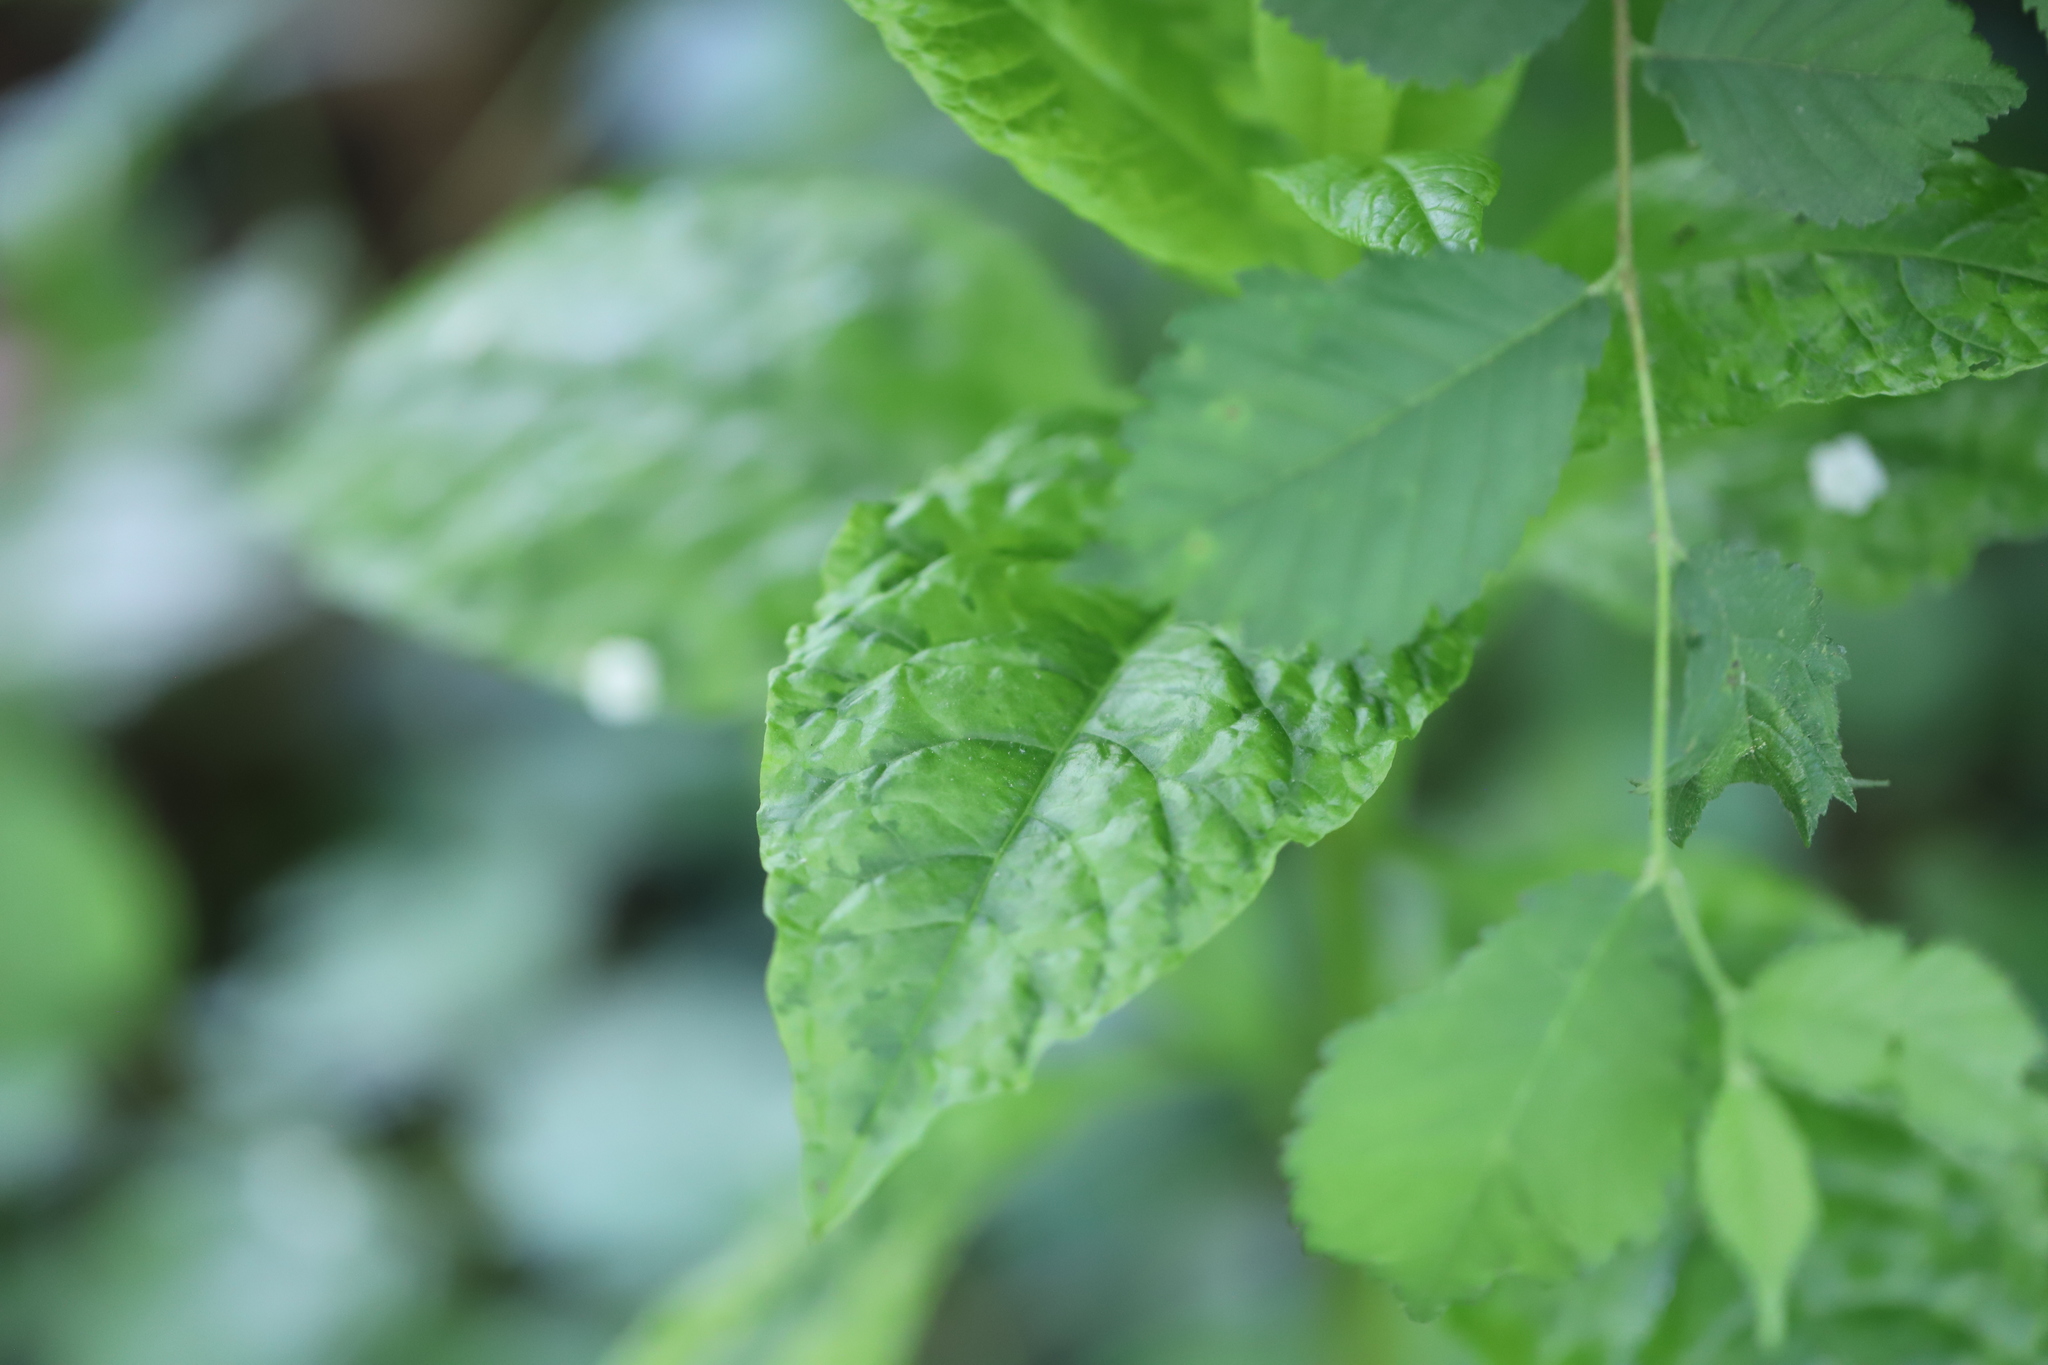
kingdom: Viruses
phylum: Pisuviricota
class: Stelpaviricetes
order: Patatavirales
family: Potyviridae
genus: Potyvirus
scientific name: Potyvirus Pokeweed mosaic virus
